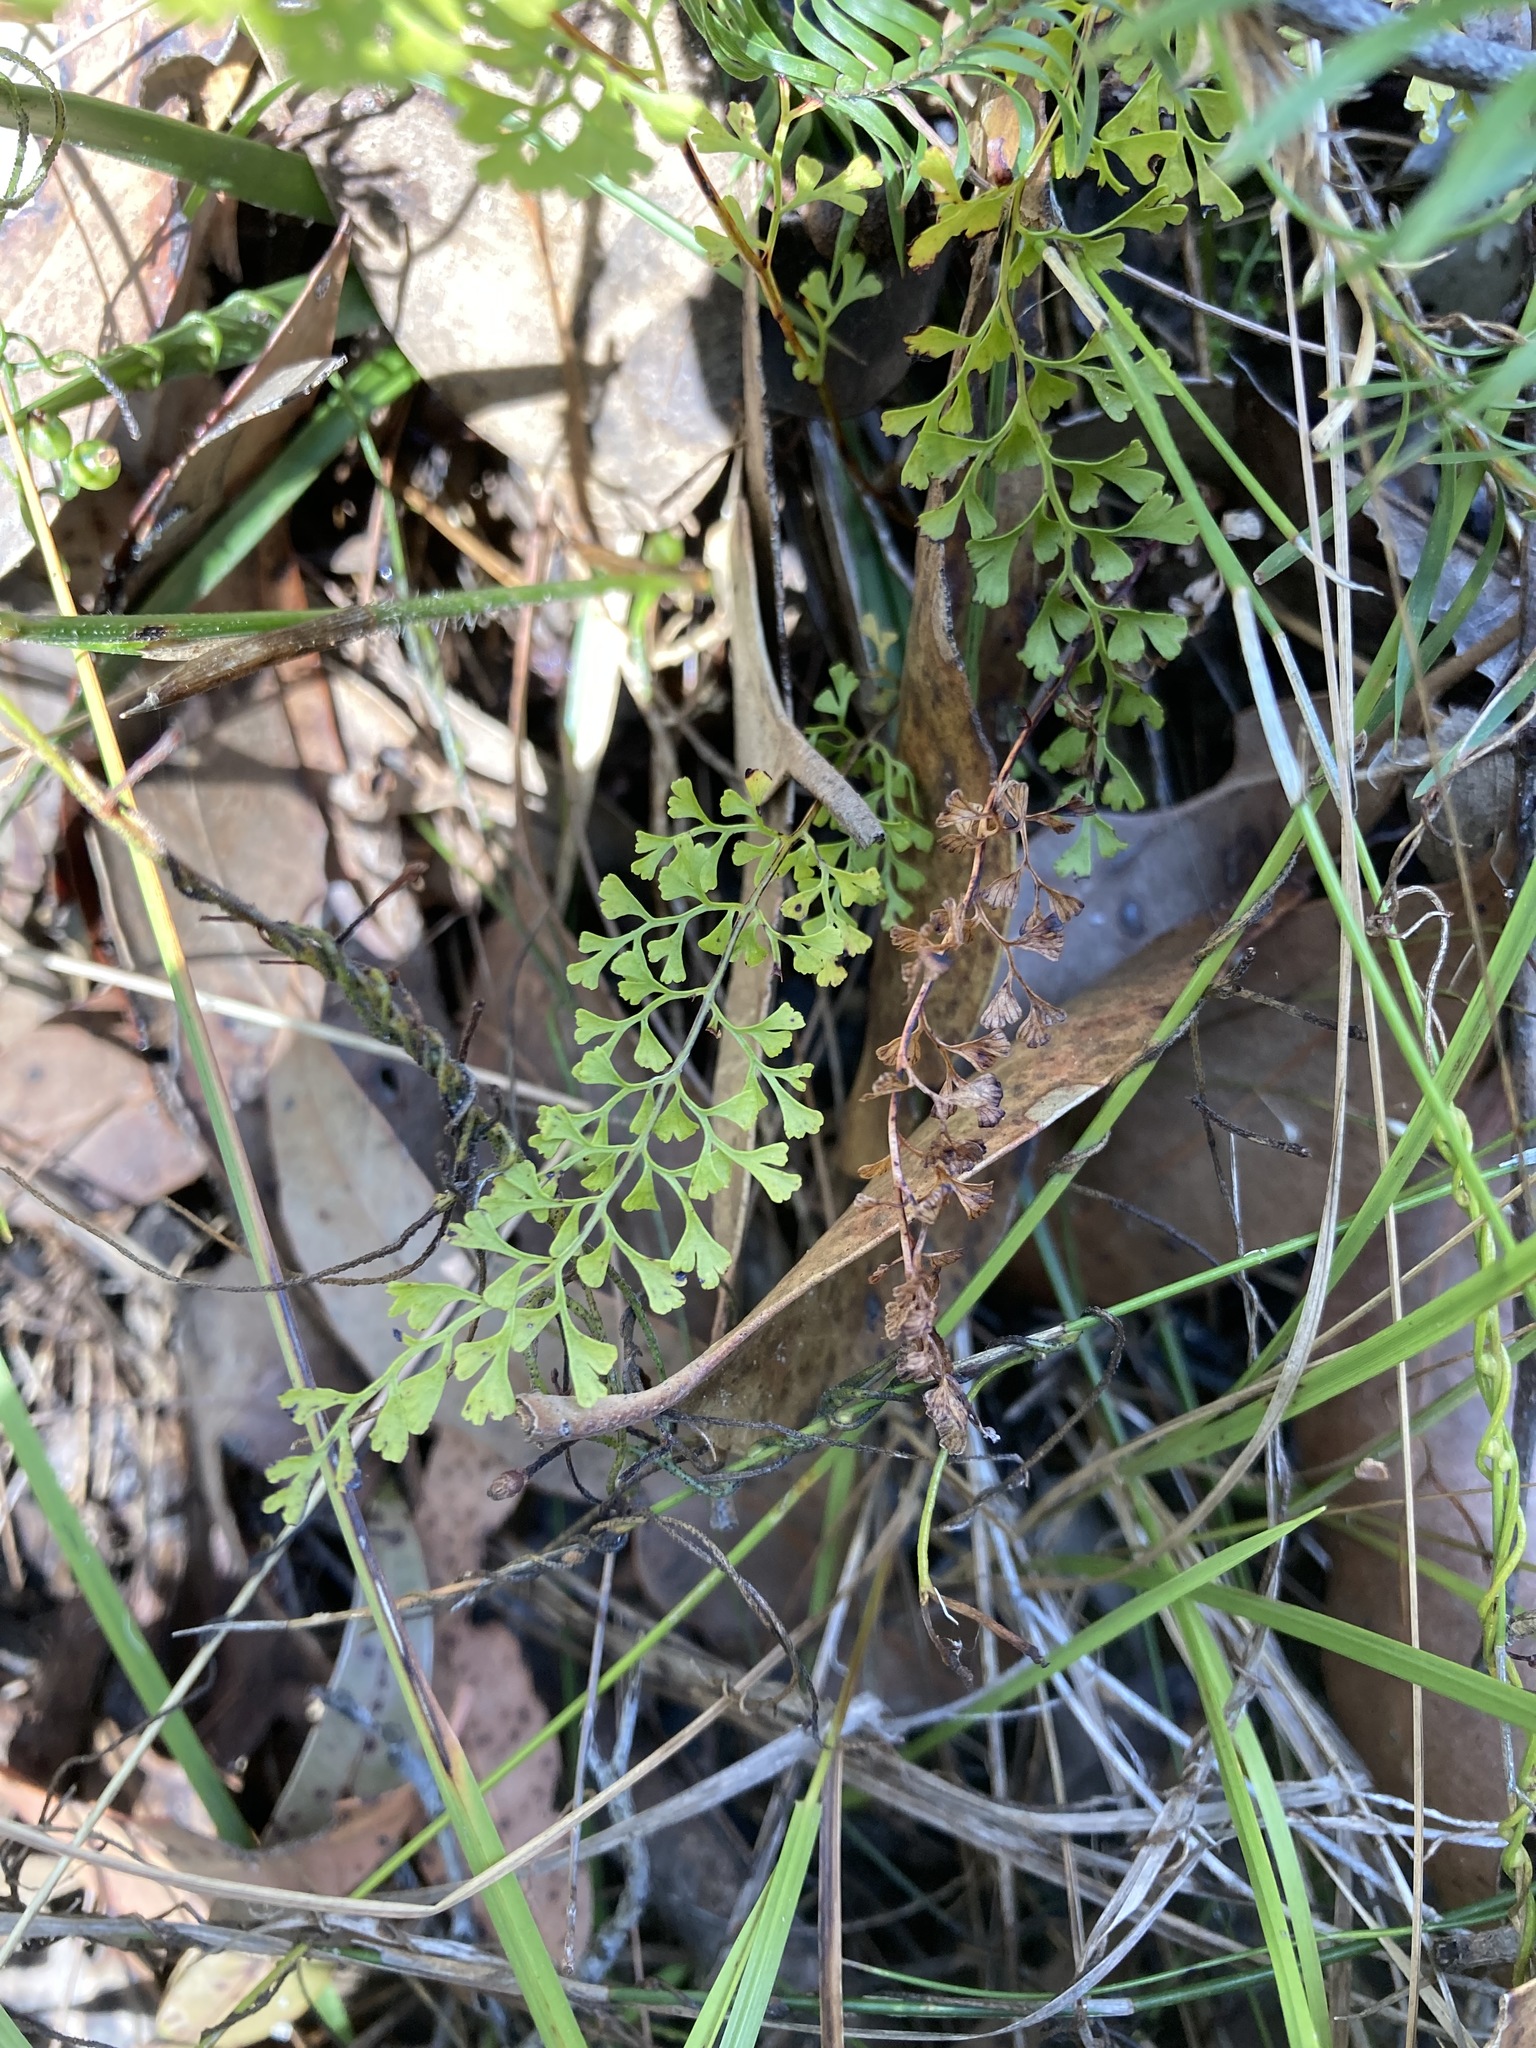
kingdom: Plantae
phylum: Tracheophyta
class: Polypodiopsida
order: Polypodiales
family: Lindsaeaceae
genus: Lindsaea
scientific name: Lindsaea microphylla
